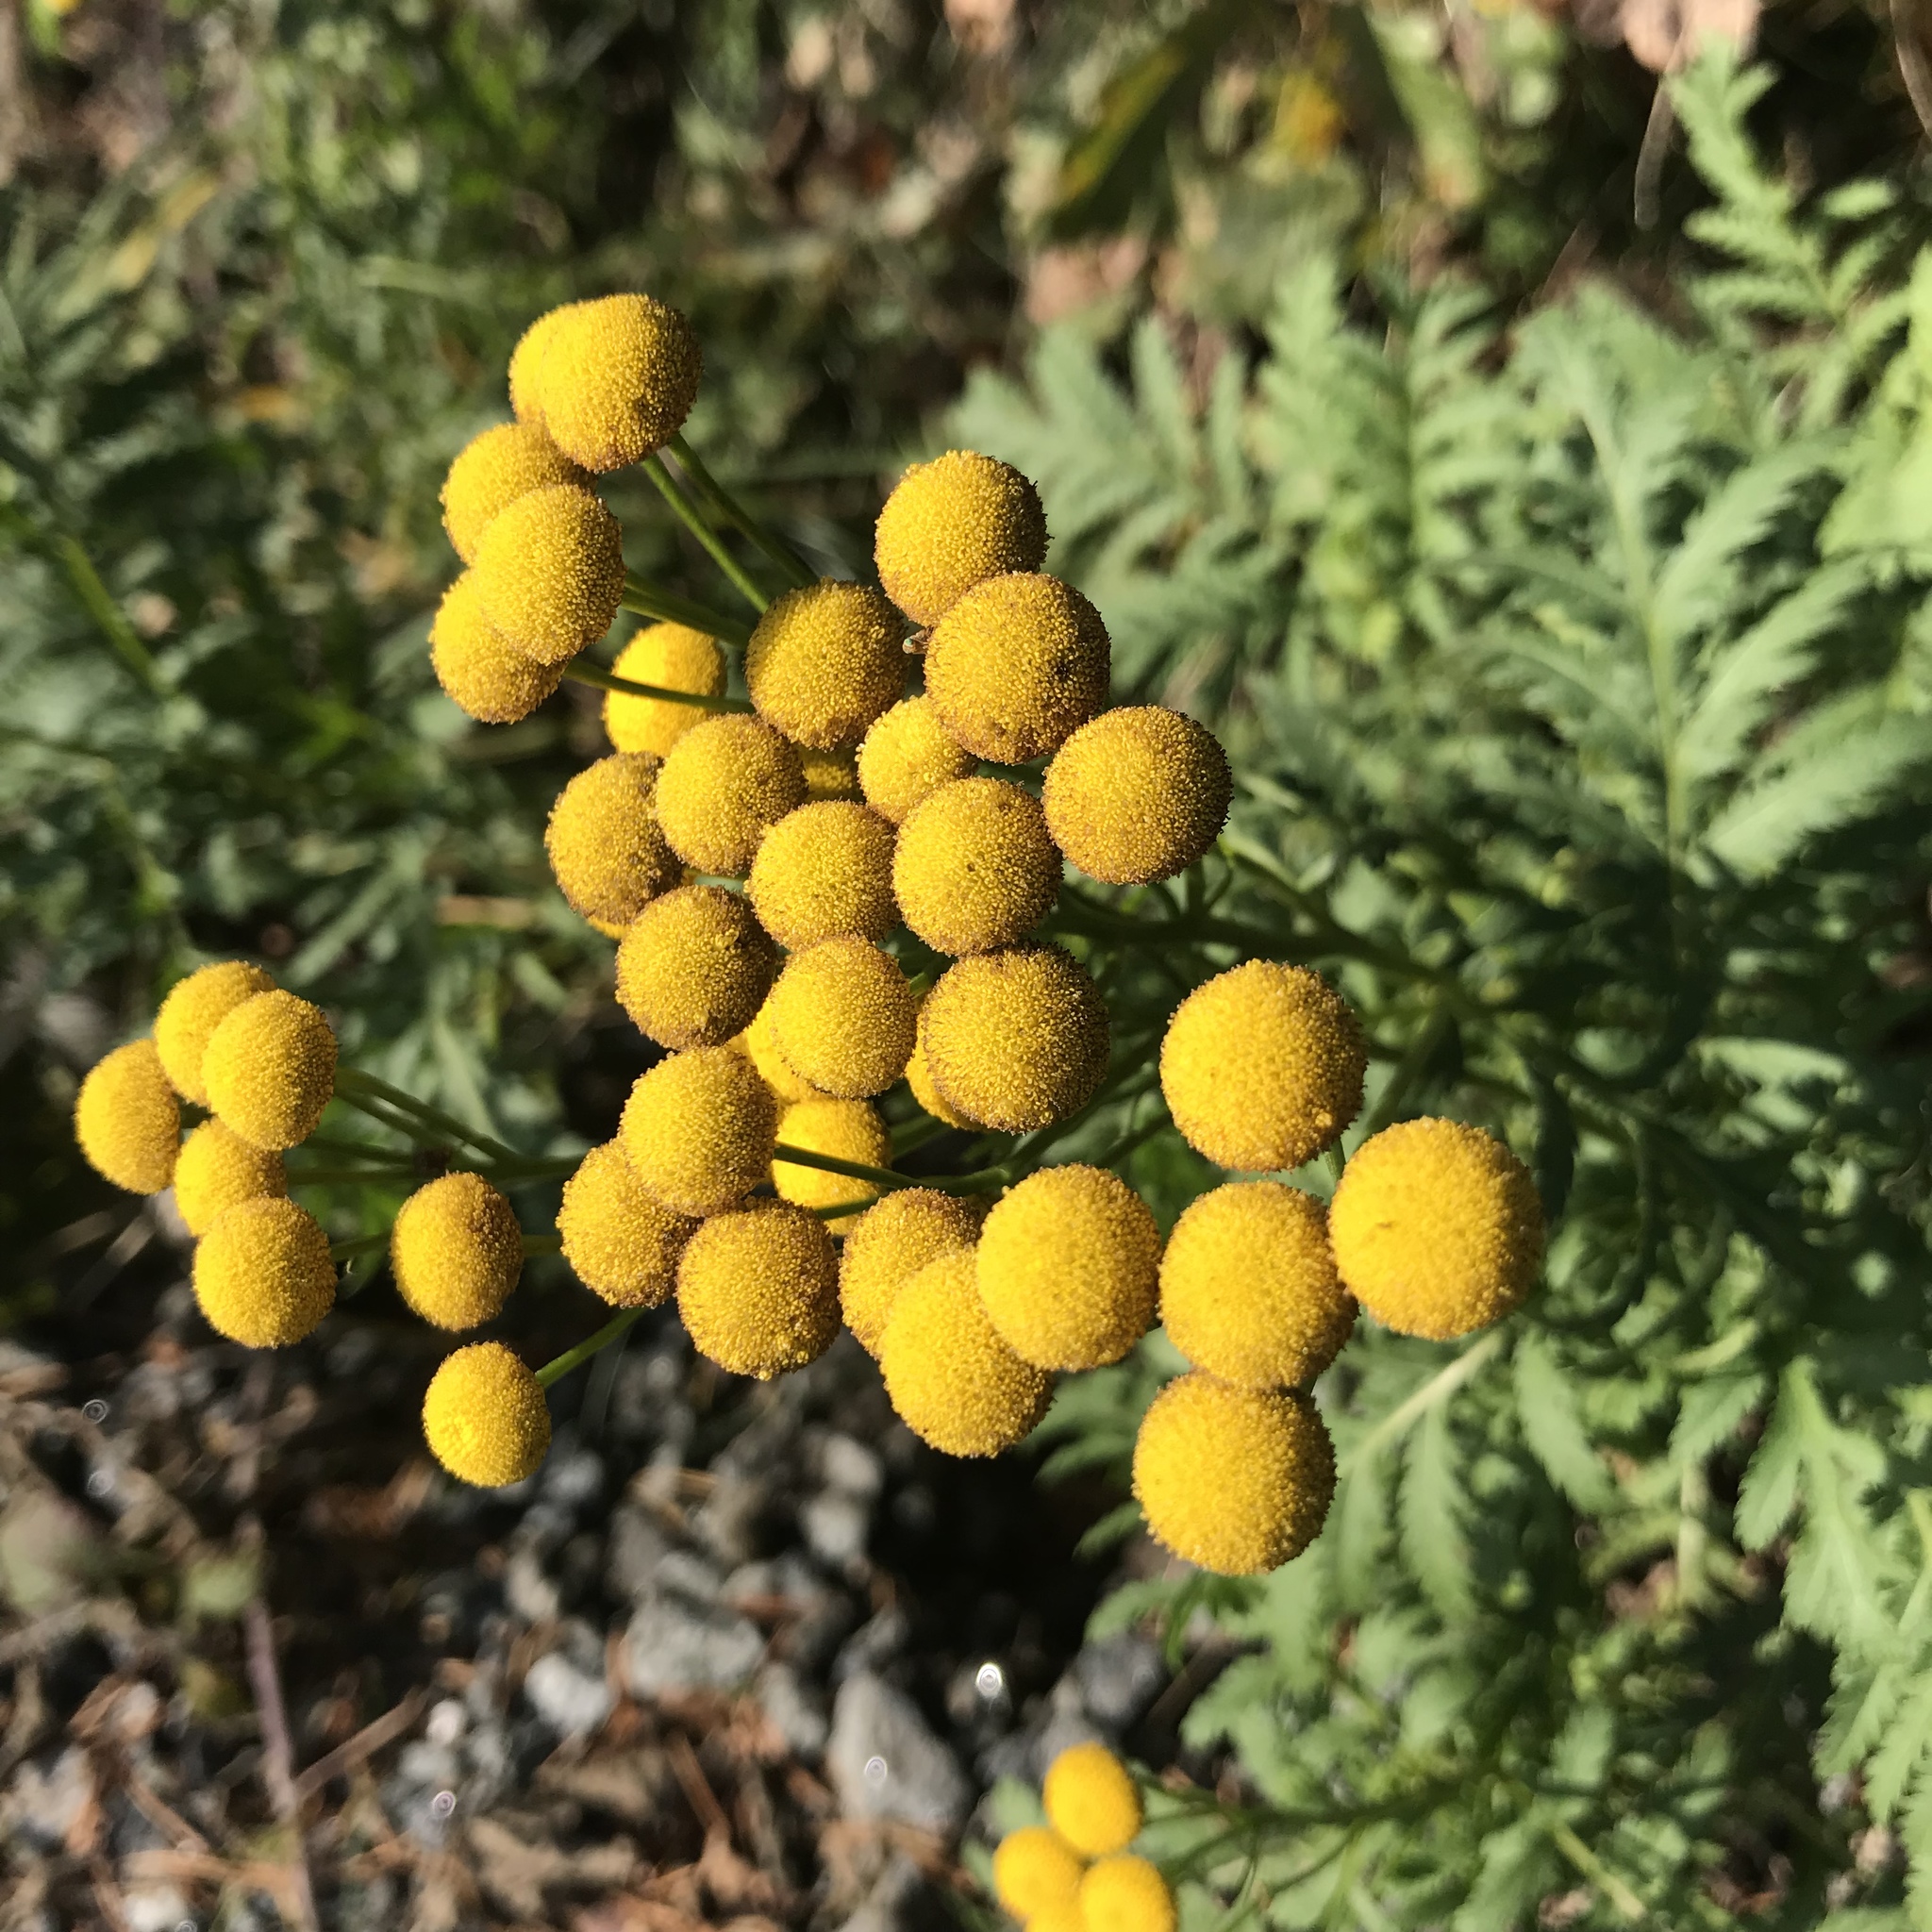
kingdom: Plantae
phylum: Tracheophyta
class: Magnoliopsida
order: Asterales
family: Asteraceae
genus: Tanacetum
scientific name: Tanacetum vulgare
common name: Common tansy
